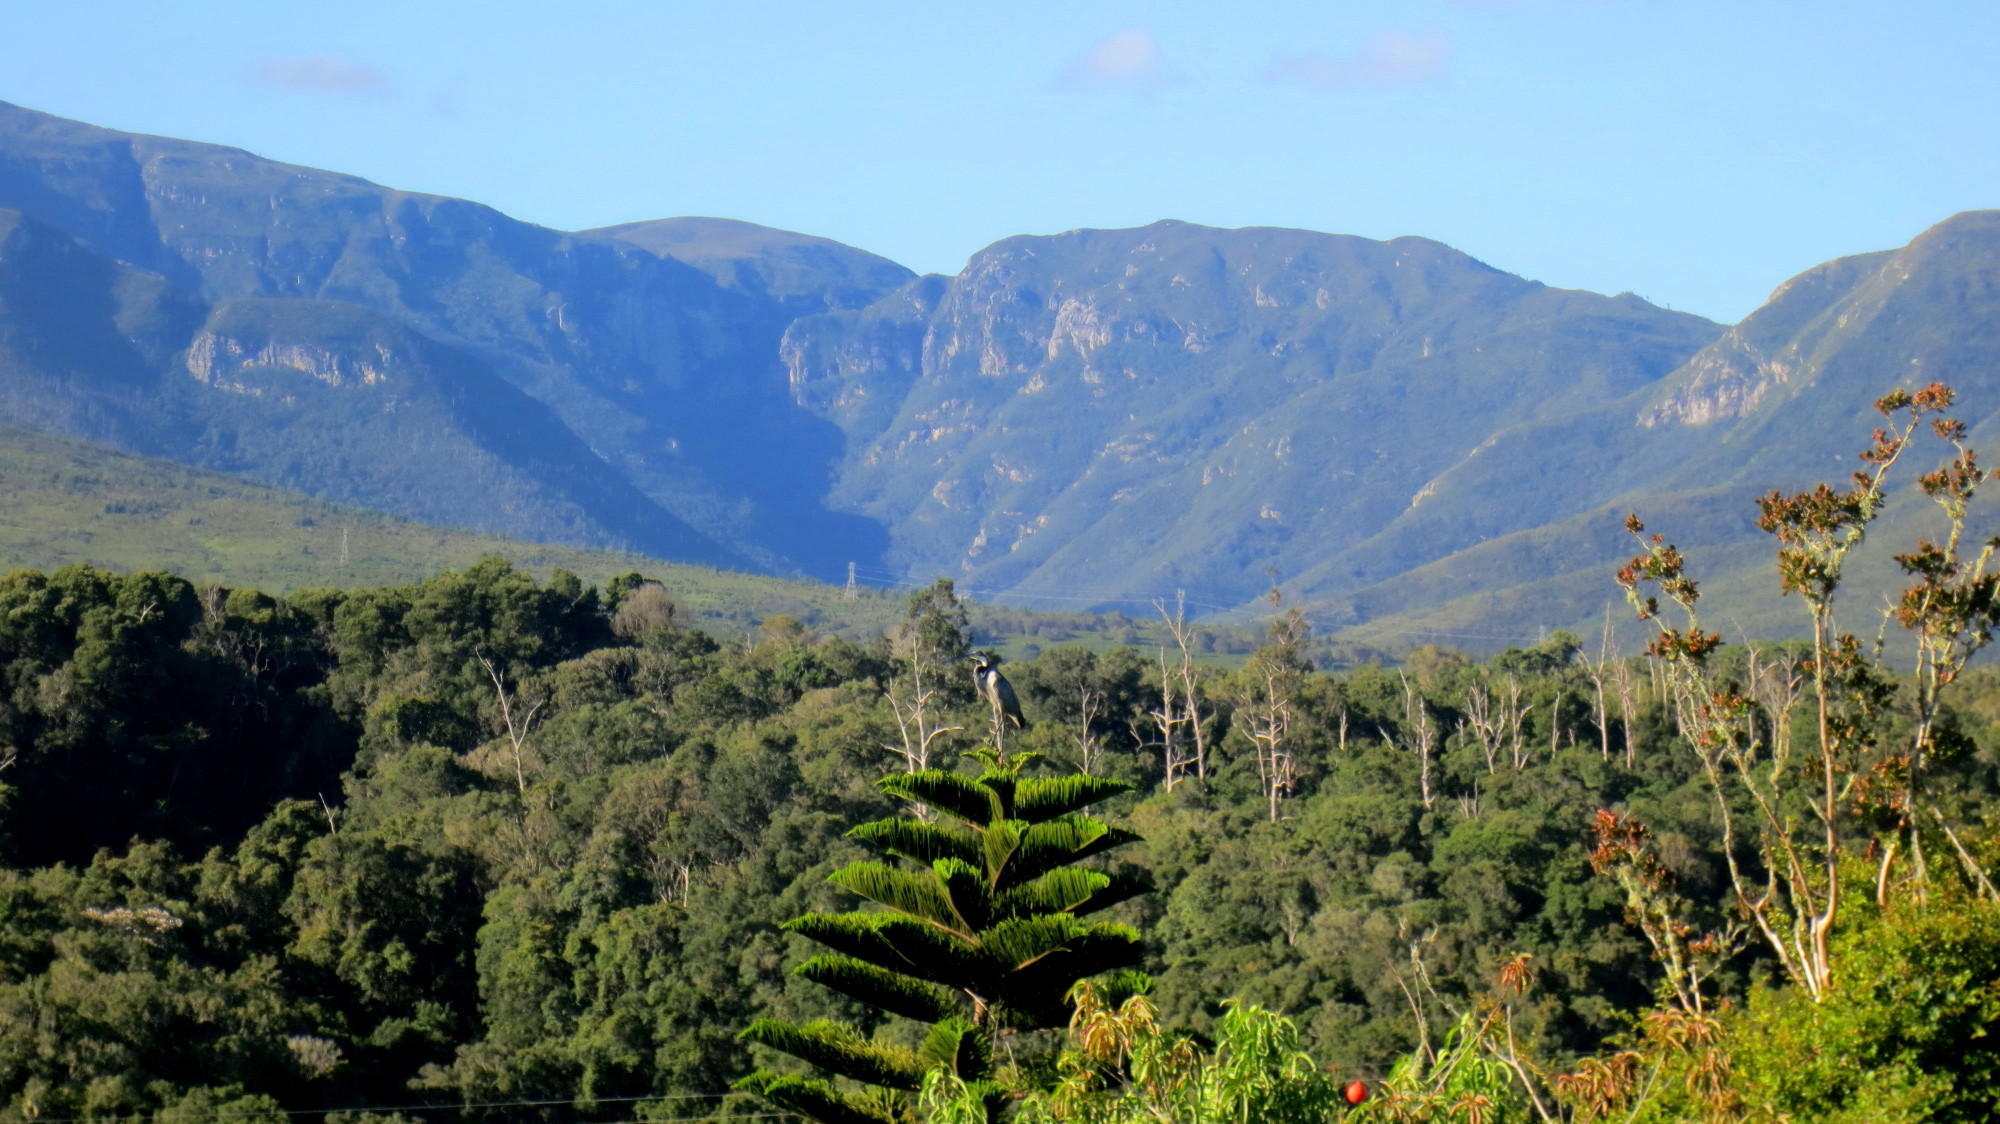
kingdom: Animalia
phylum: Chordata
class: Aves
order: Pelecaniformes
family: Ardeidae
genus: Ardea
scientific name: Ardea melanocephala
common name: Black-headed heron
